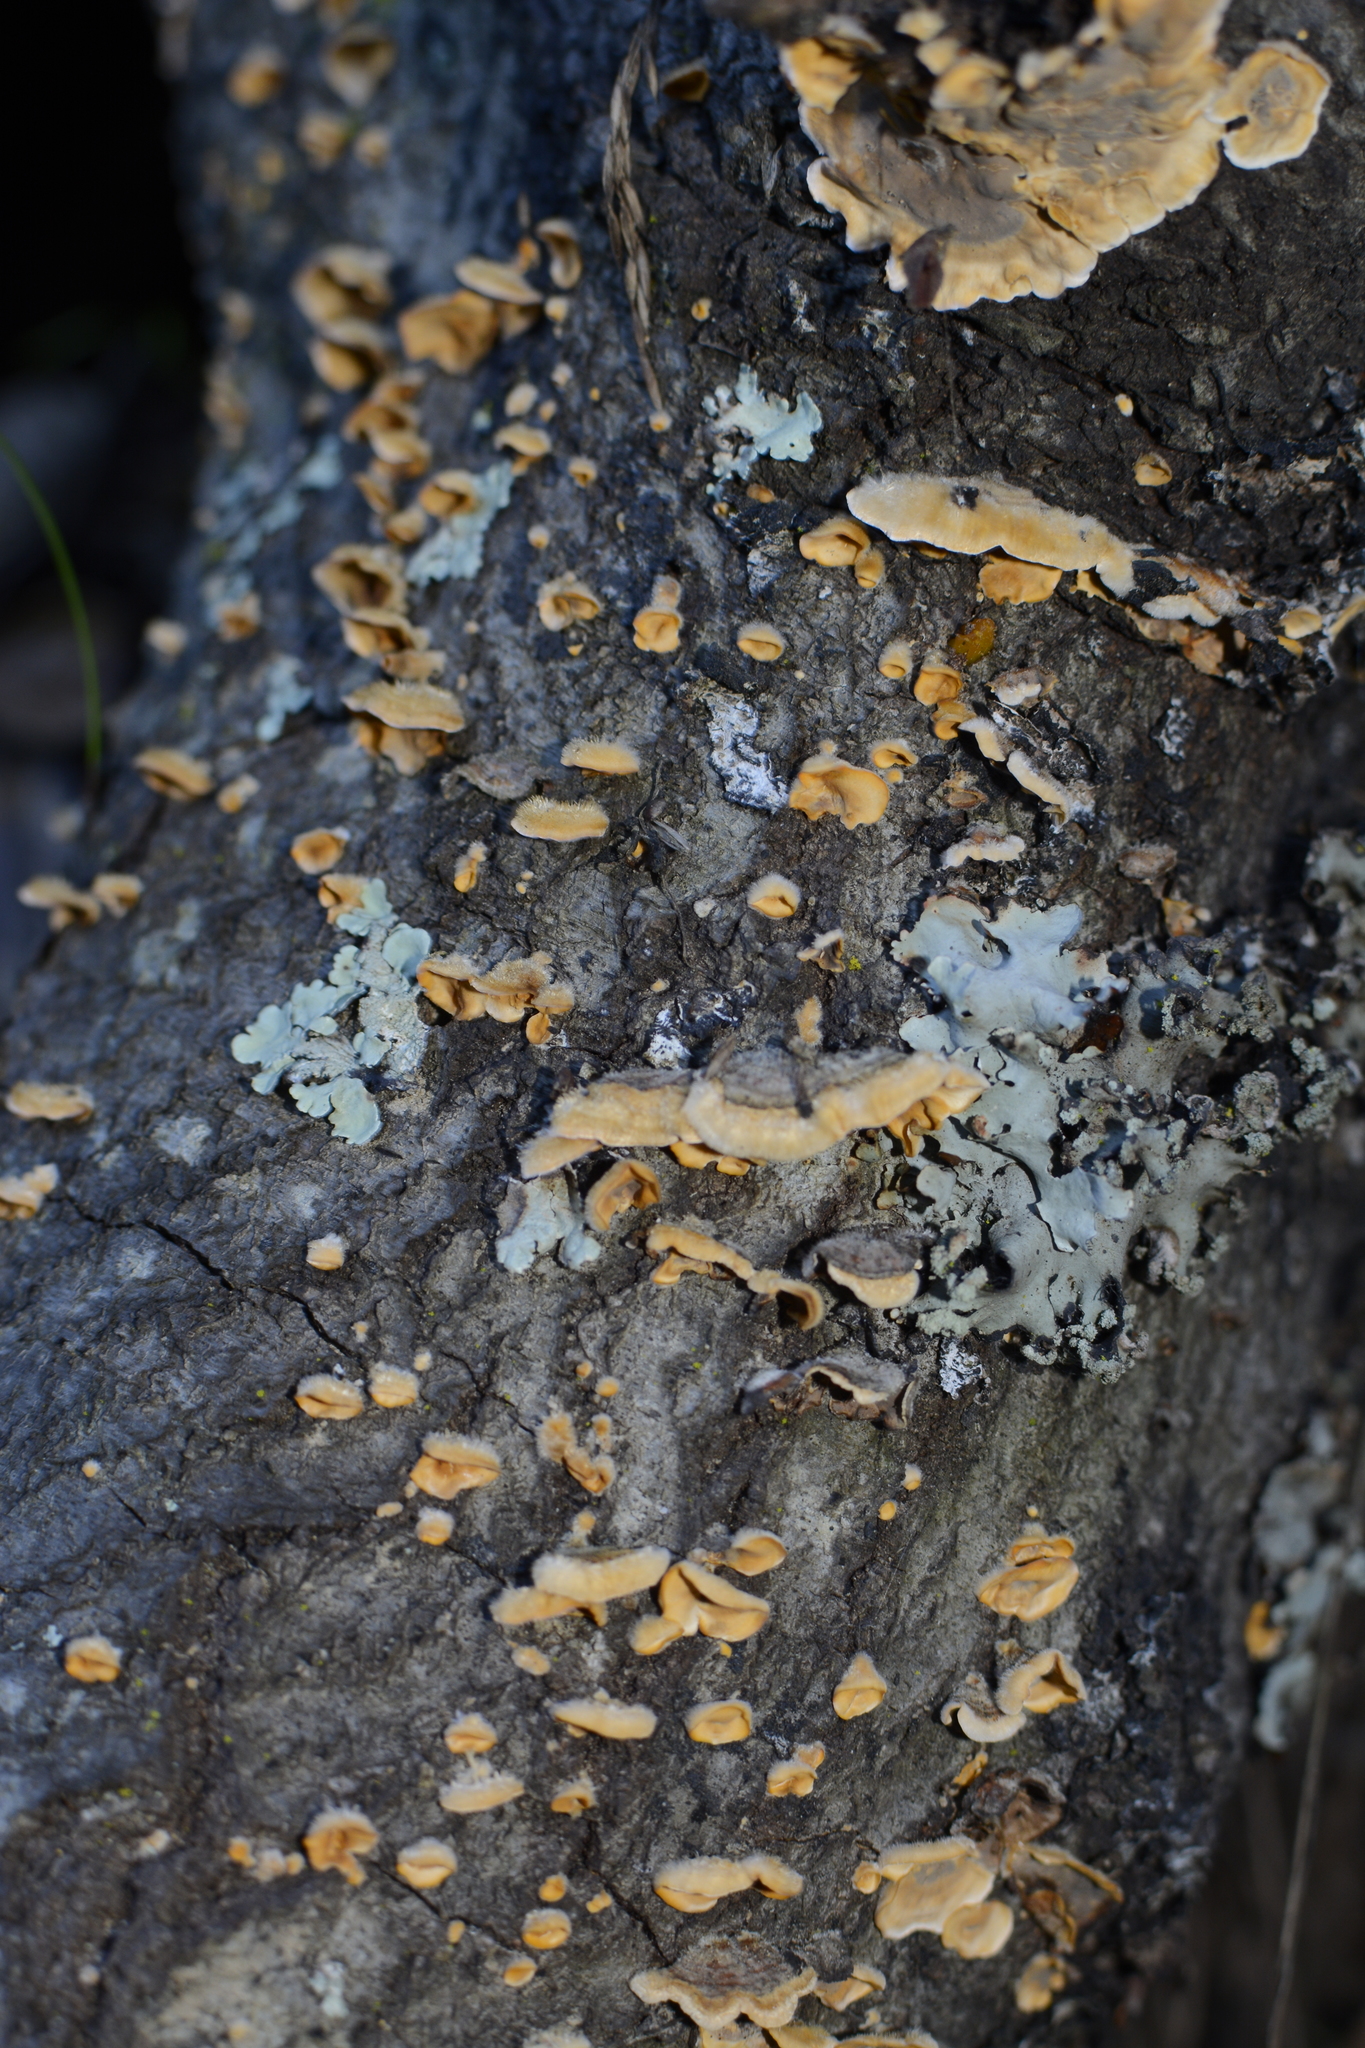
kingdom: Fungi
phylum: Basidiomycota
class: Agaricomycetes
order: Russulales
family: Stereaceae
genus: Stereum
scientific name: Stereum hirsutum
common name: Hairy curtain crust
